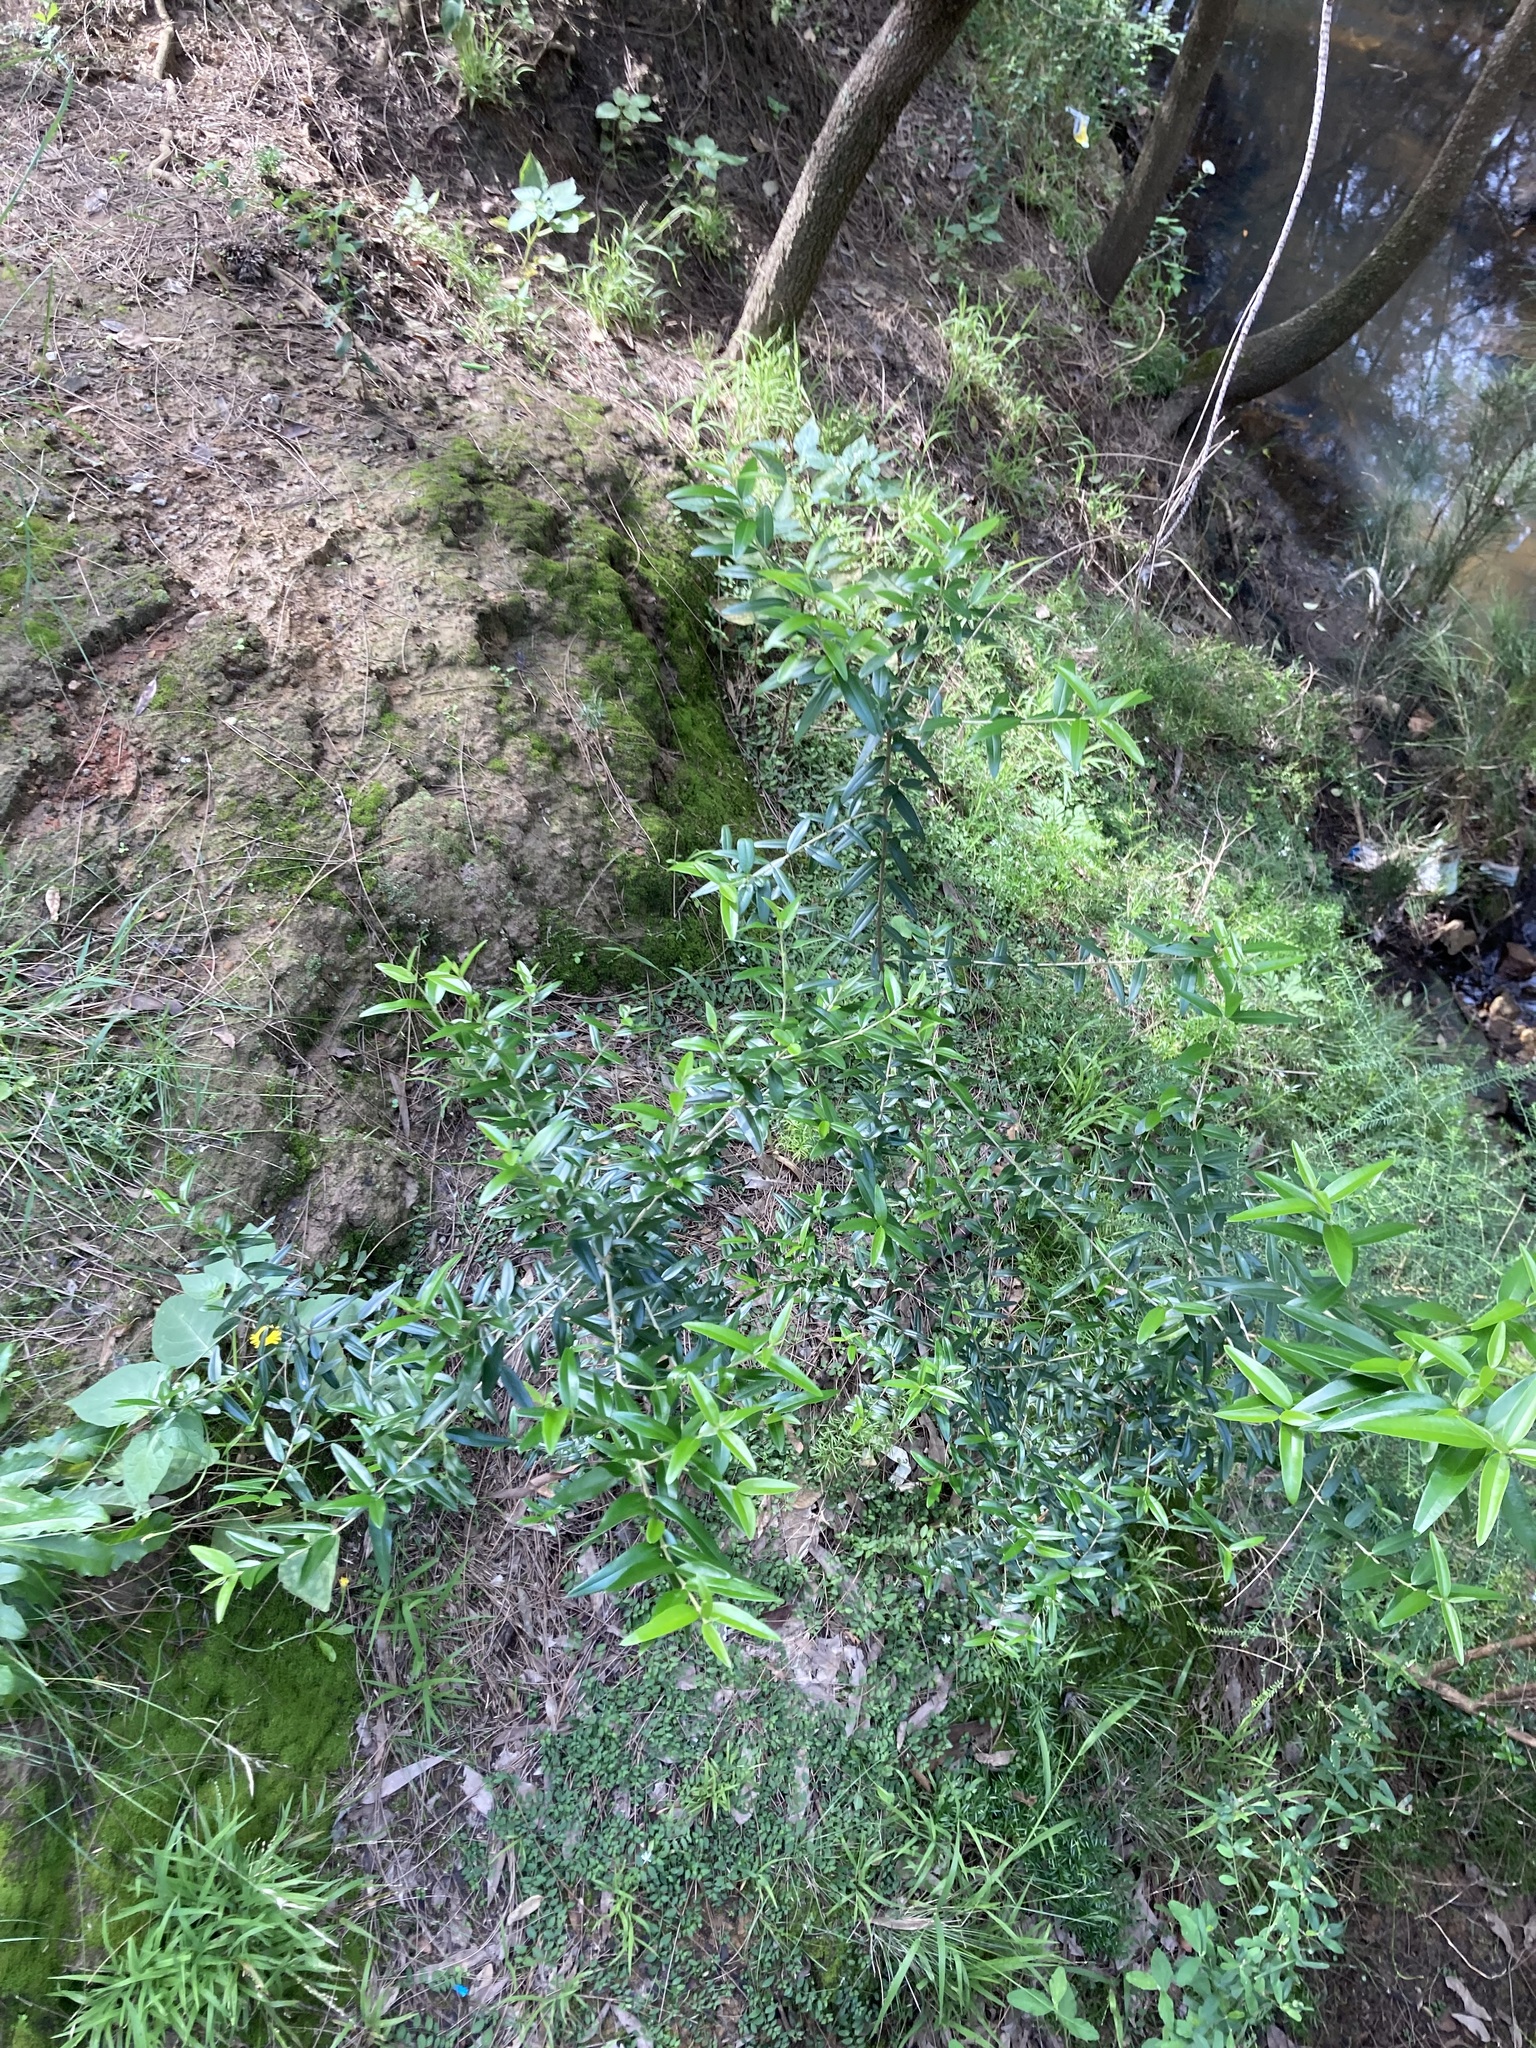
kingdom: Plantae
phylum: Tracheophyta
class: Magnoliopsida
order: Lamiales
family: Oleaceae
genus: Olea
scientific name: Olea europaea
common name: Olive
